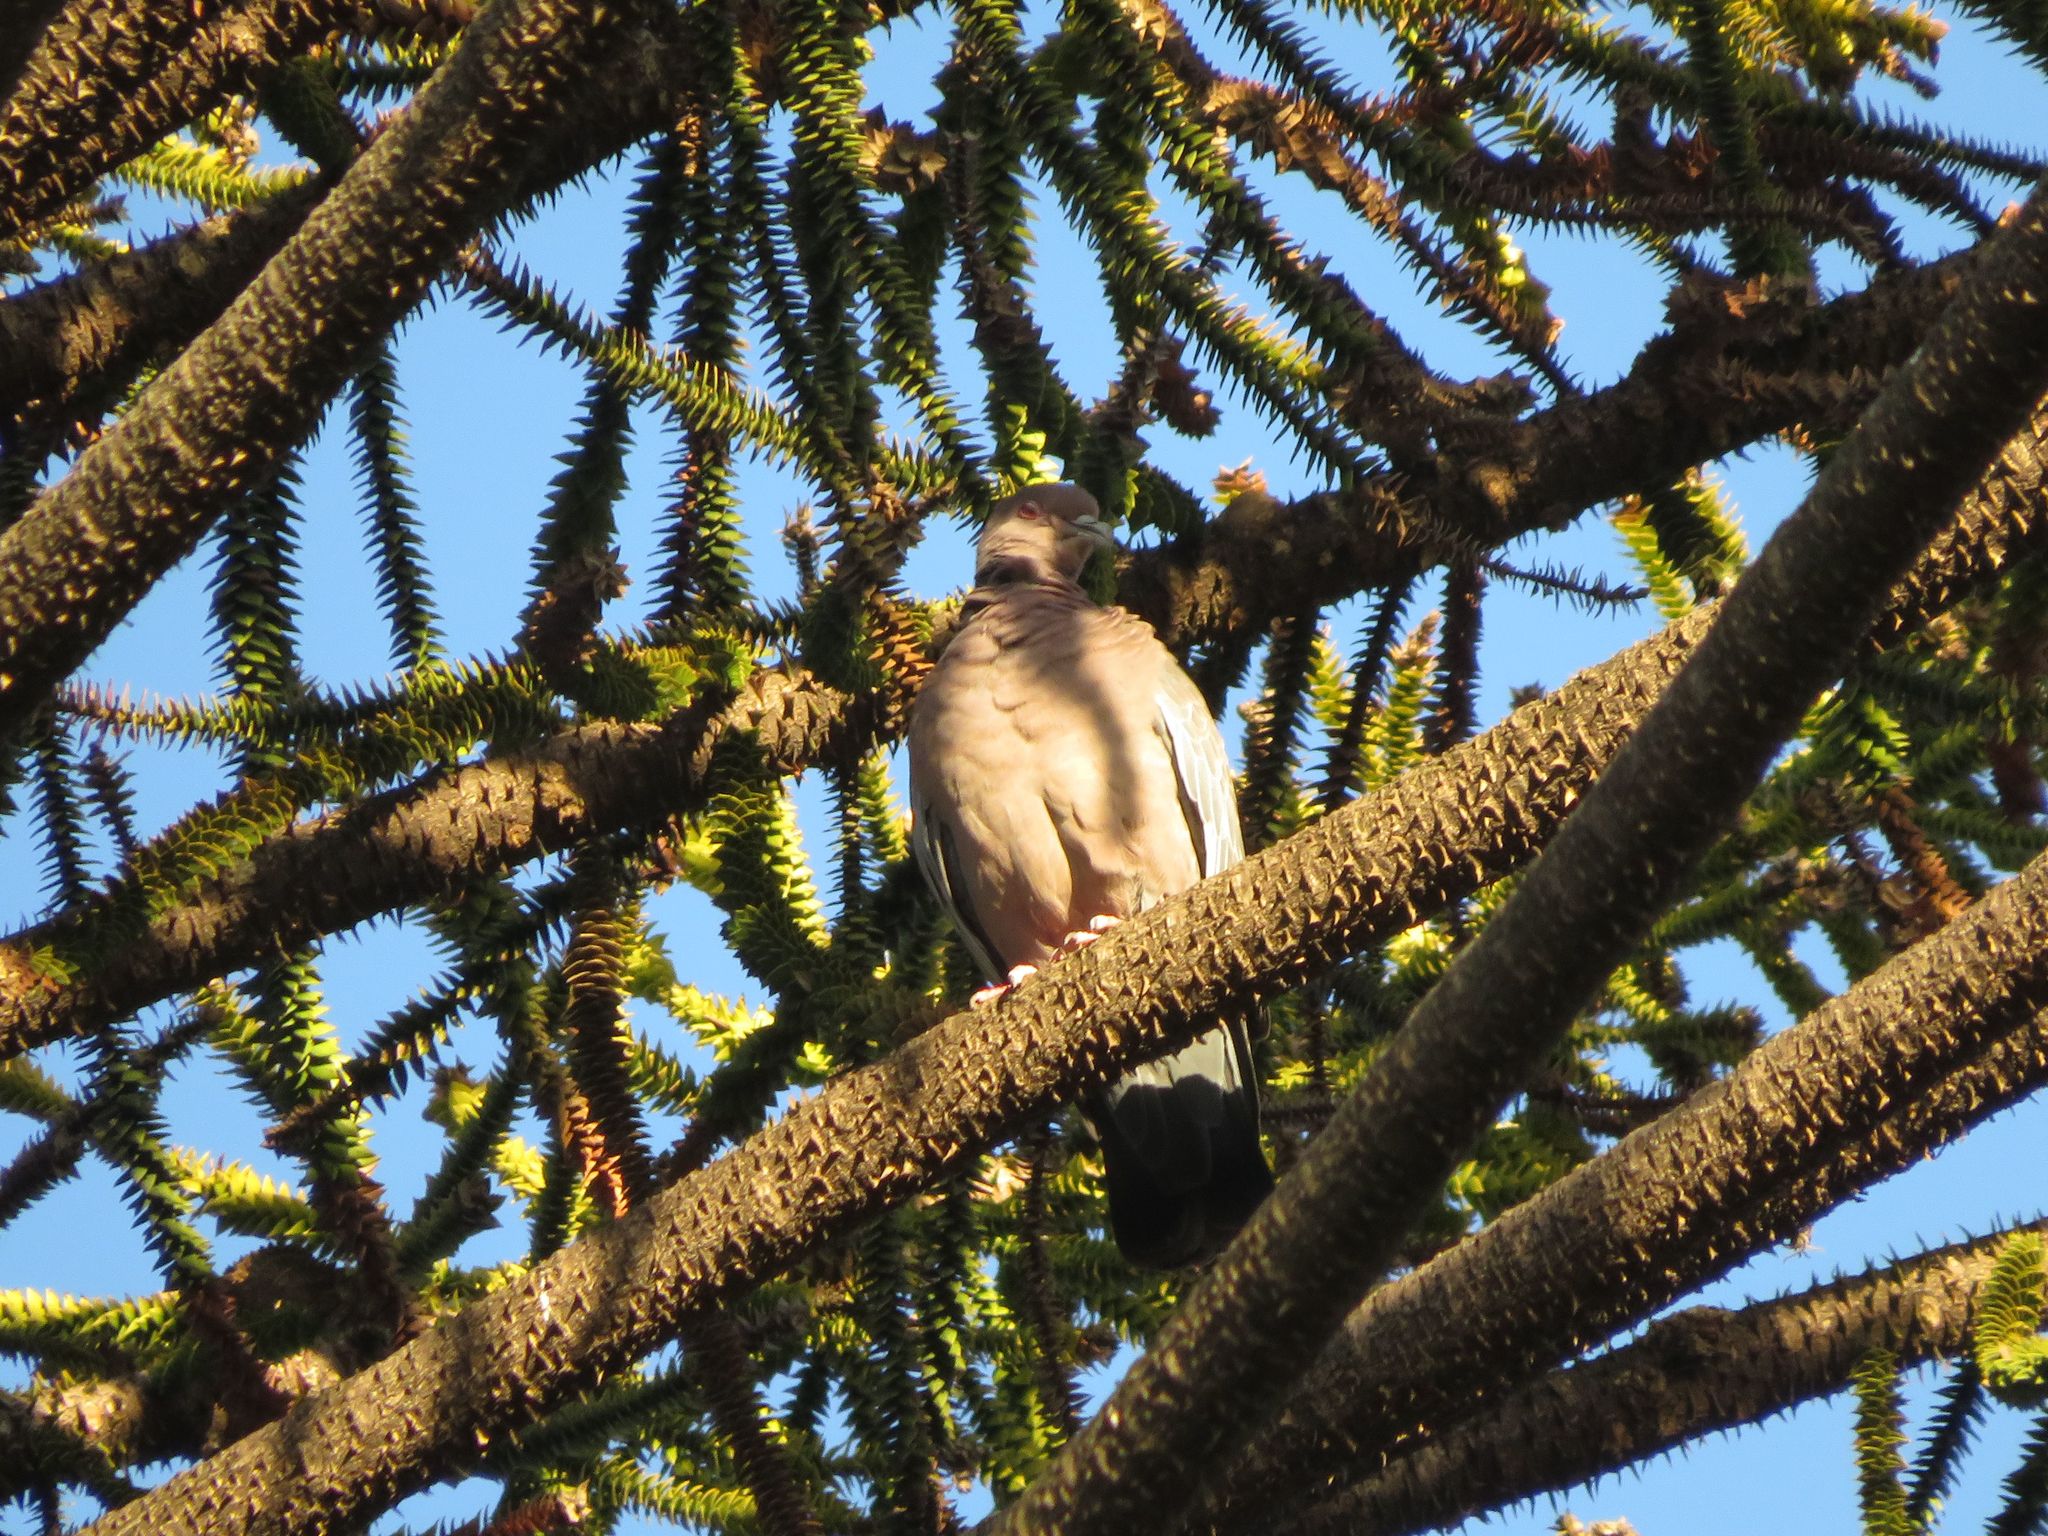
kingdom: Animalia
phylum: Chordata
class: Aves
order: Columbiformes
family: Columbidae
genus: Patagioenas
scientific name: Patagioenas picazuro
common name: Picazuro pigeon
